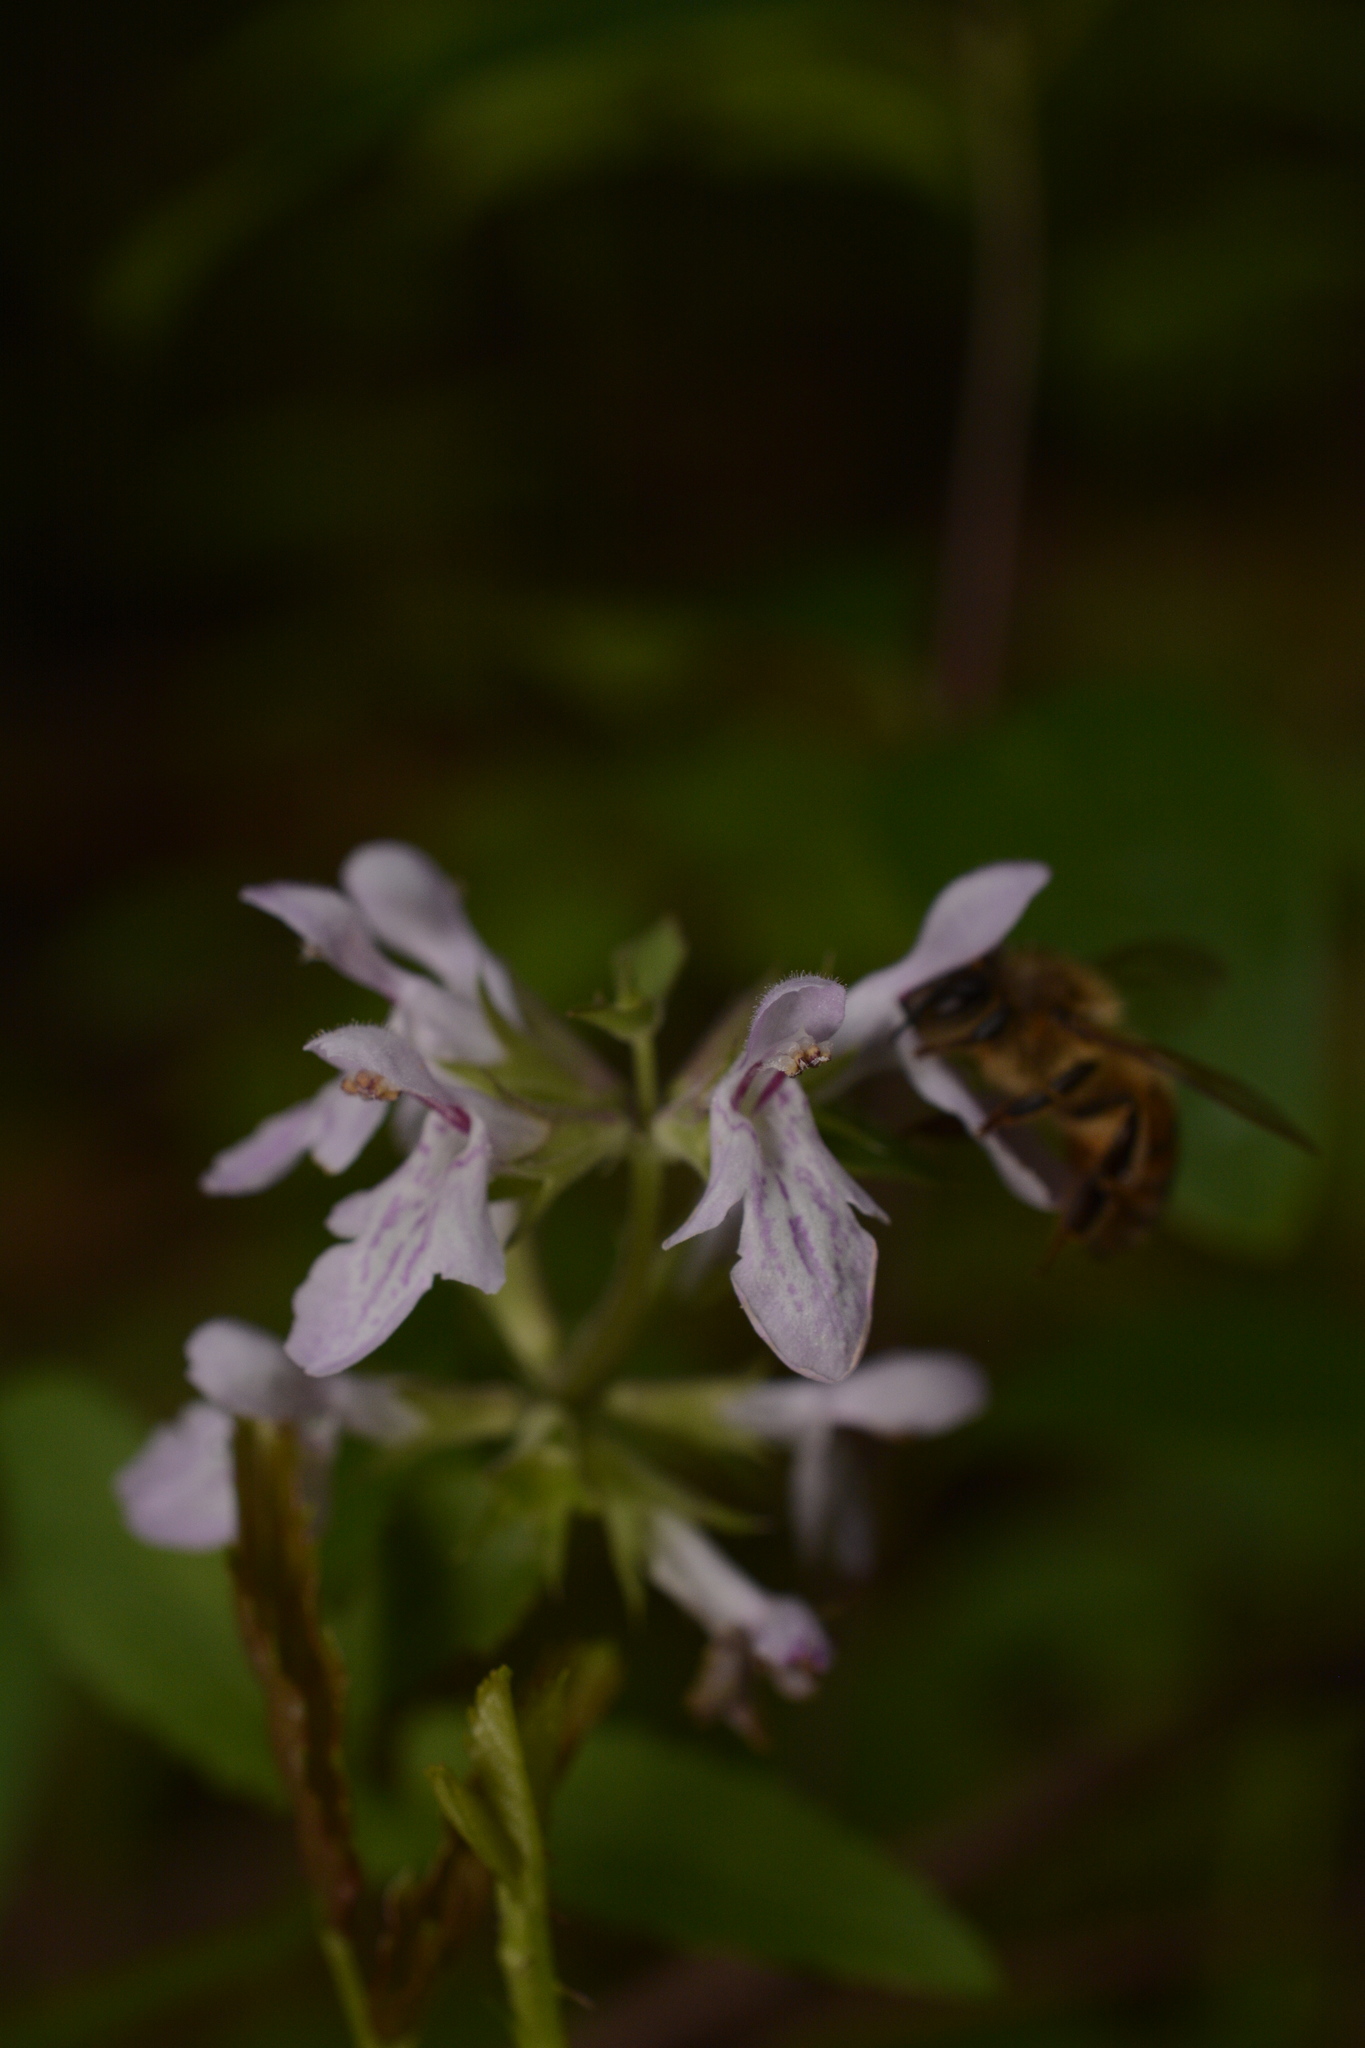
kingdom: Plantae
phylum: Tracheophyta
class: Magnoliopsida
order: Lamiales
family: Lamiaceae
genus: Stachys
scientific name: Stachys floridana
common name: Florida betony
